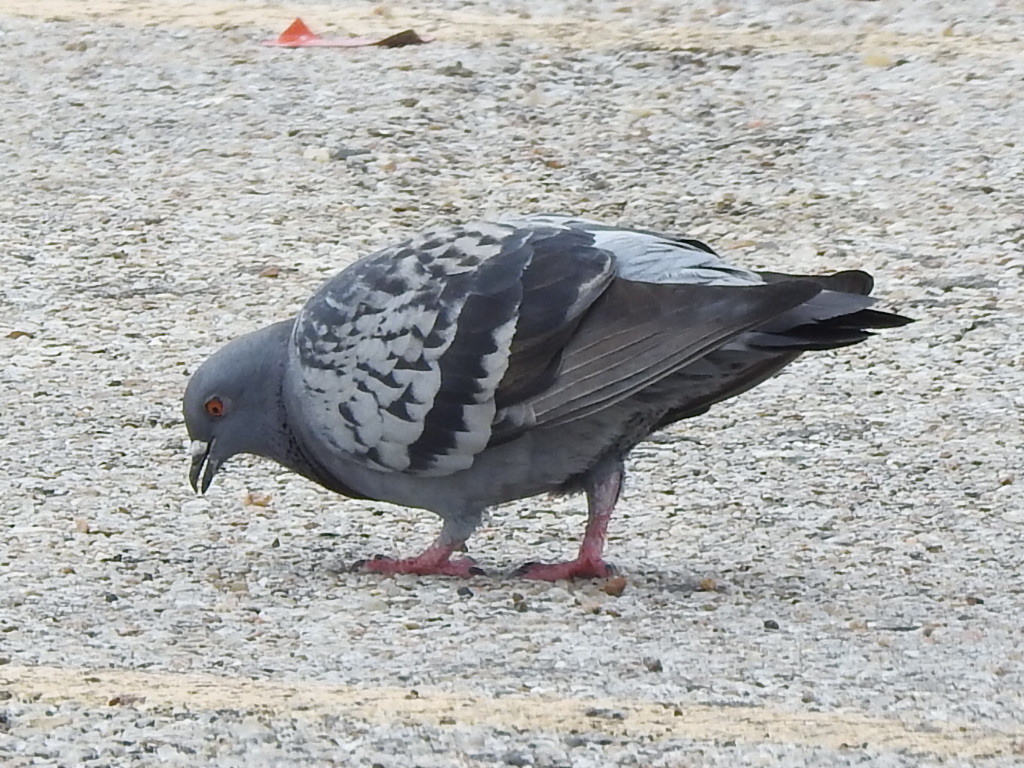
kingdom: Animalia
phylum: Chordata
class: Aves
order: Columbiformes
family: Columbidae
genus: Columba
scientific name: Columba livia
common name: Rock pigeon
